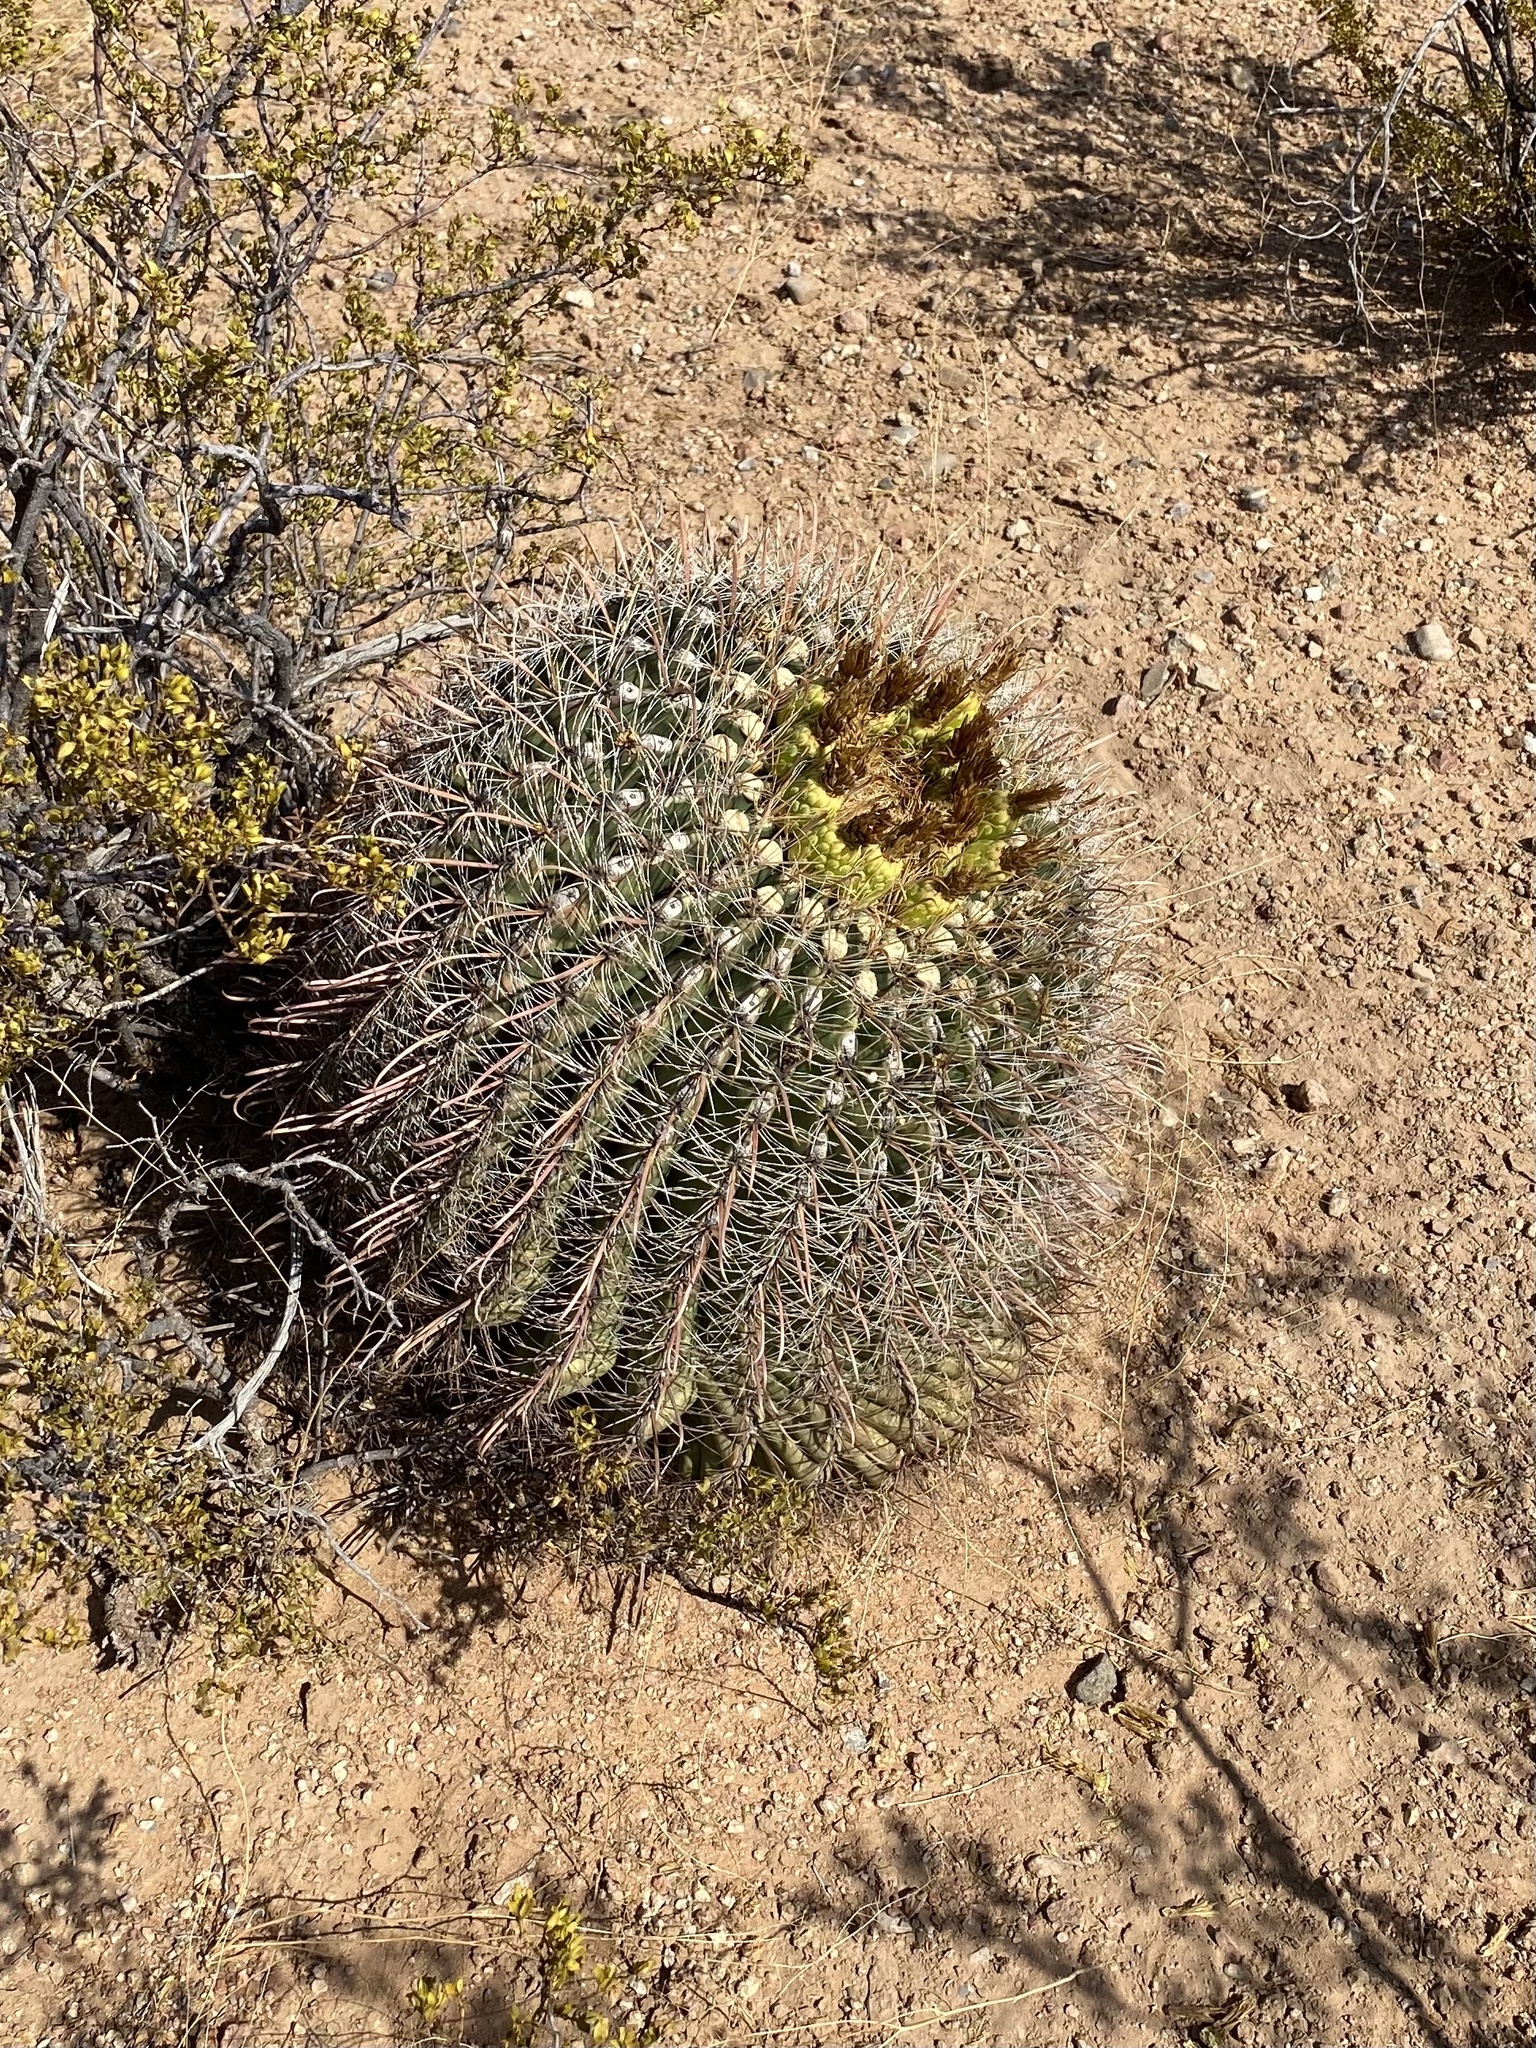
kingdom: Plantae
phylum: Tracheophyta
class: Magnoliopsida
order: Caryophyllales
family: Cactaceae
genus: Ferocactus
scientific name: Ferocactus wislizeni
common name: Candy barrel cactus
